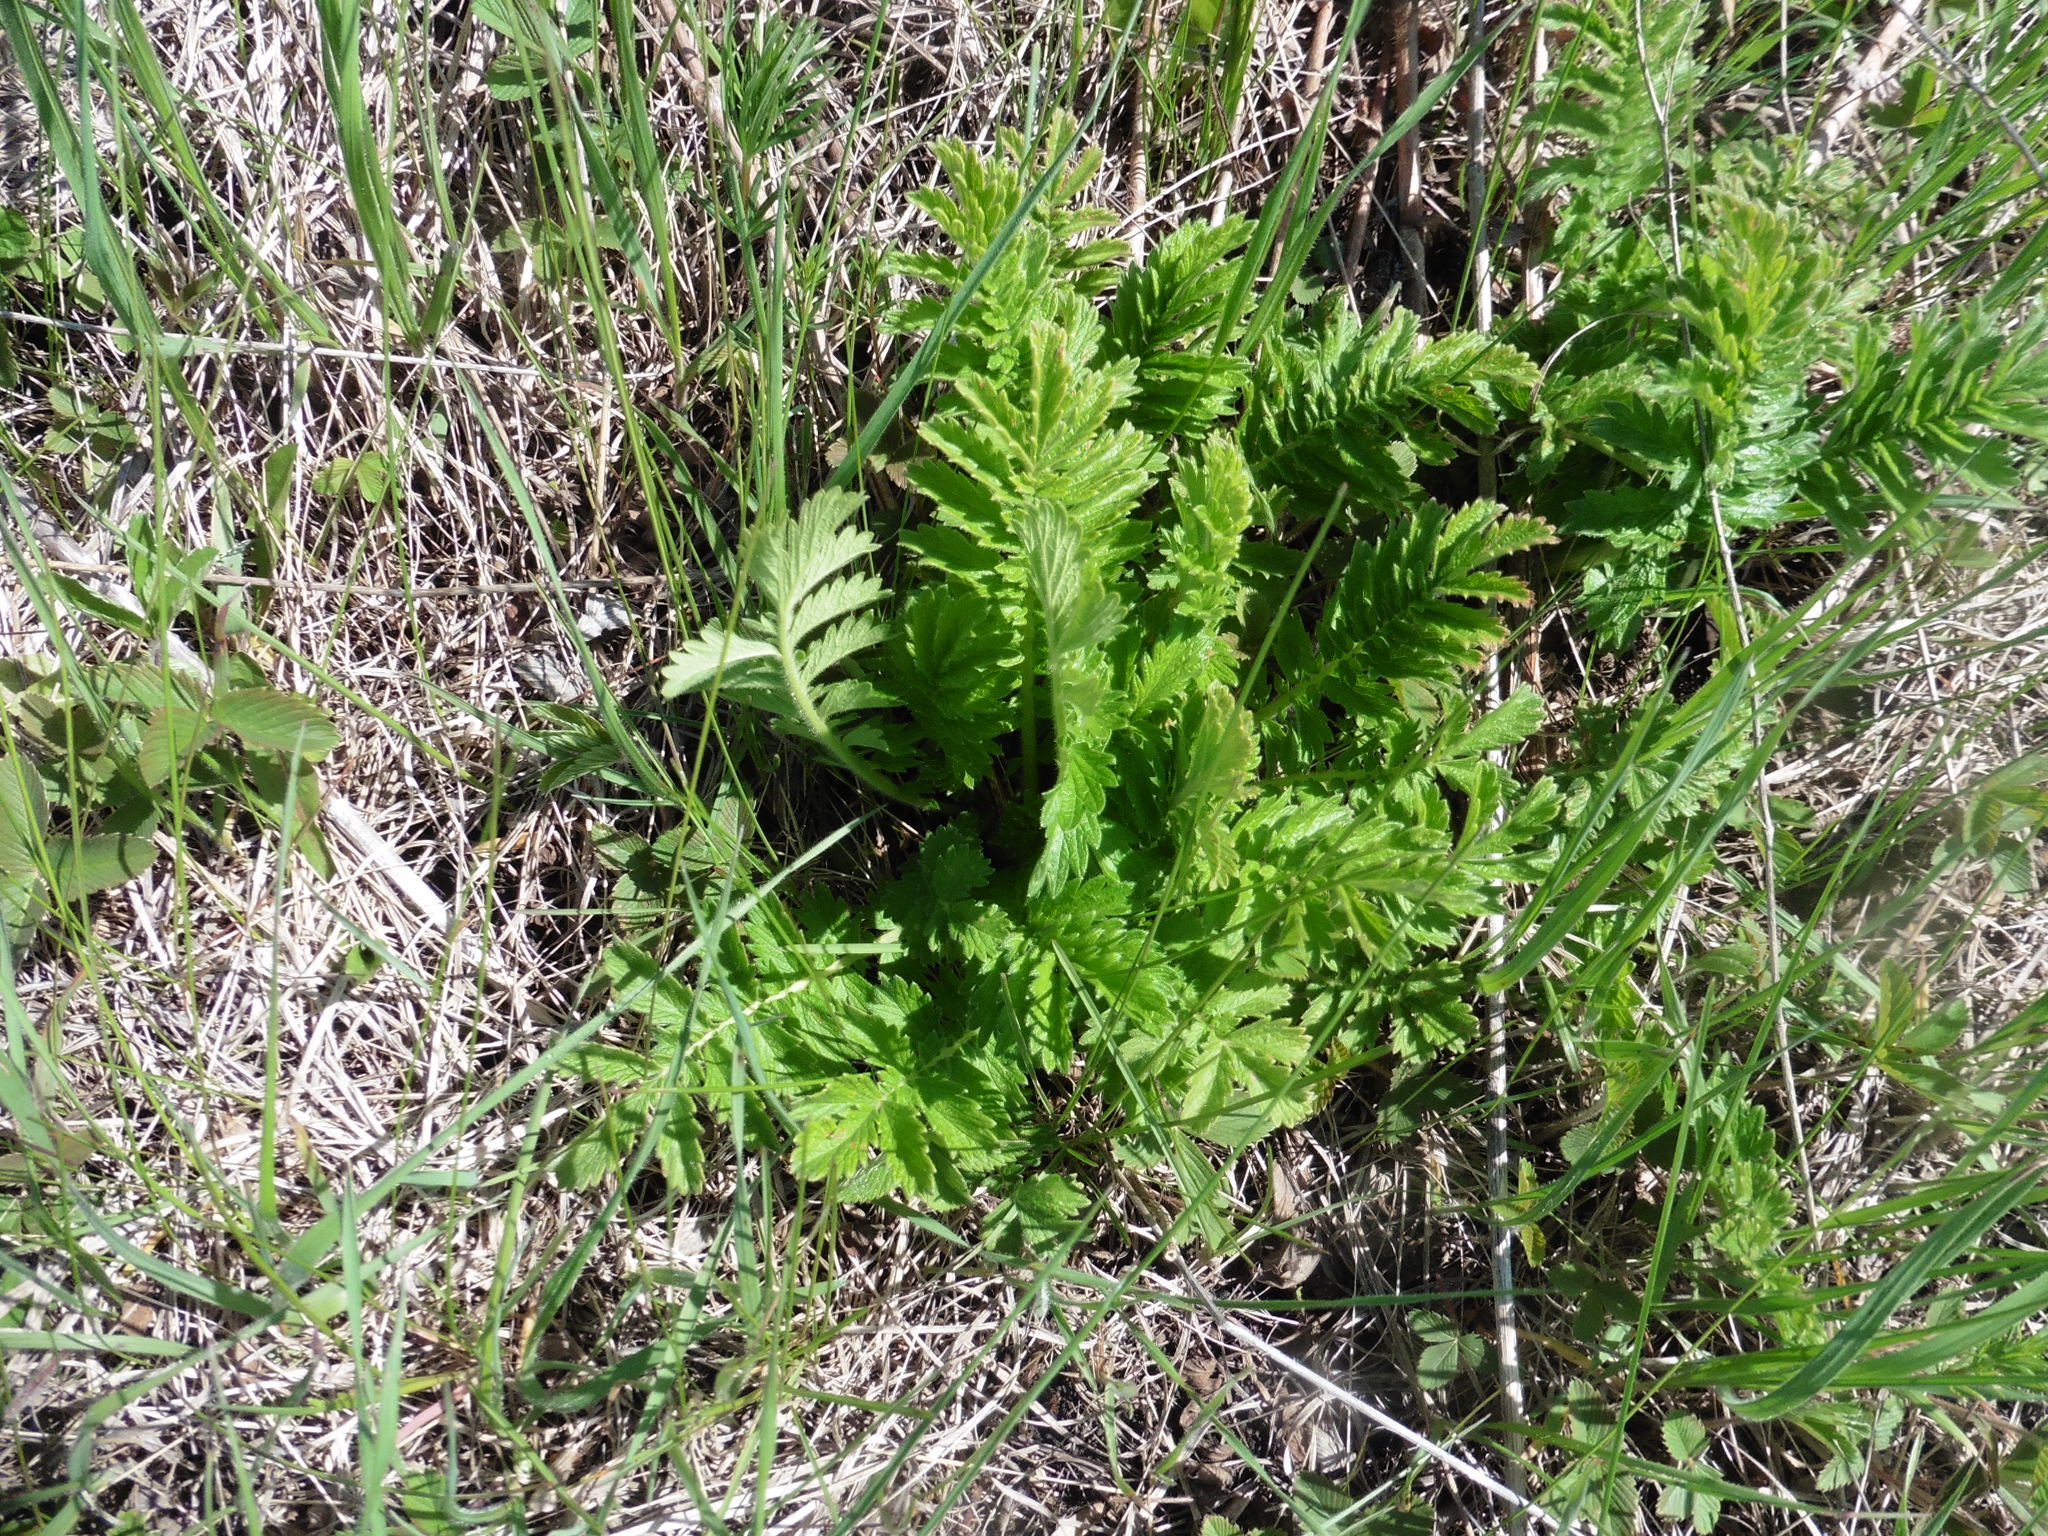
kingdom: Plantae
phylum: Tracheophyta
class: Magnoliopsida
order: Rosales
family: Rosaceae
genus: Agrimonia
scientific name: Agrimonia eupatoria
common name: Agrimony
